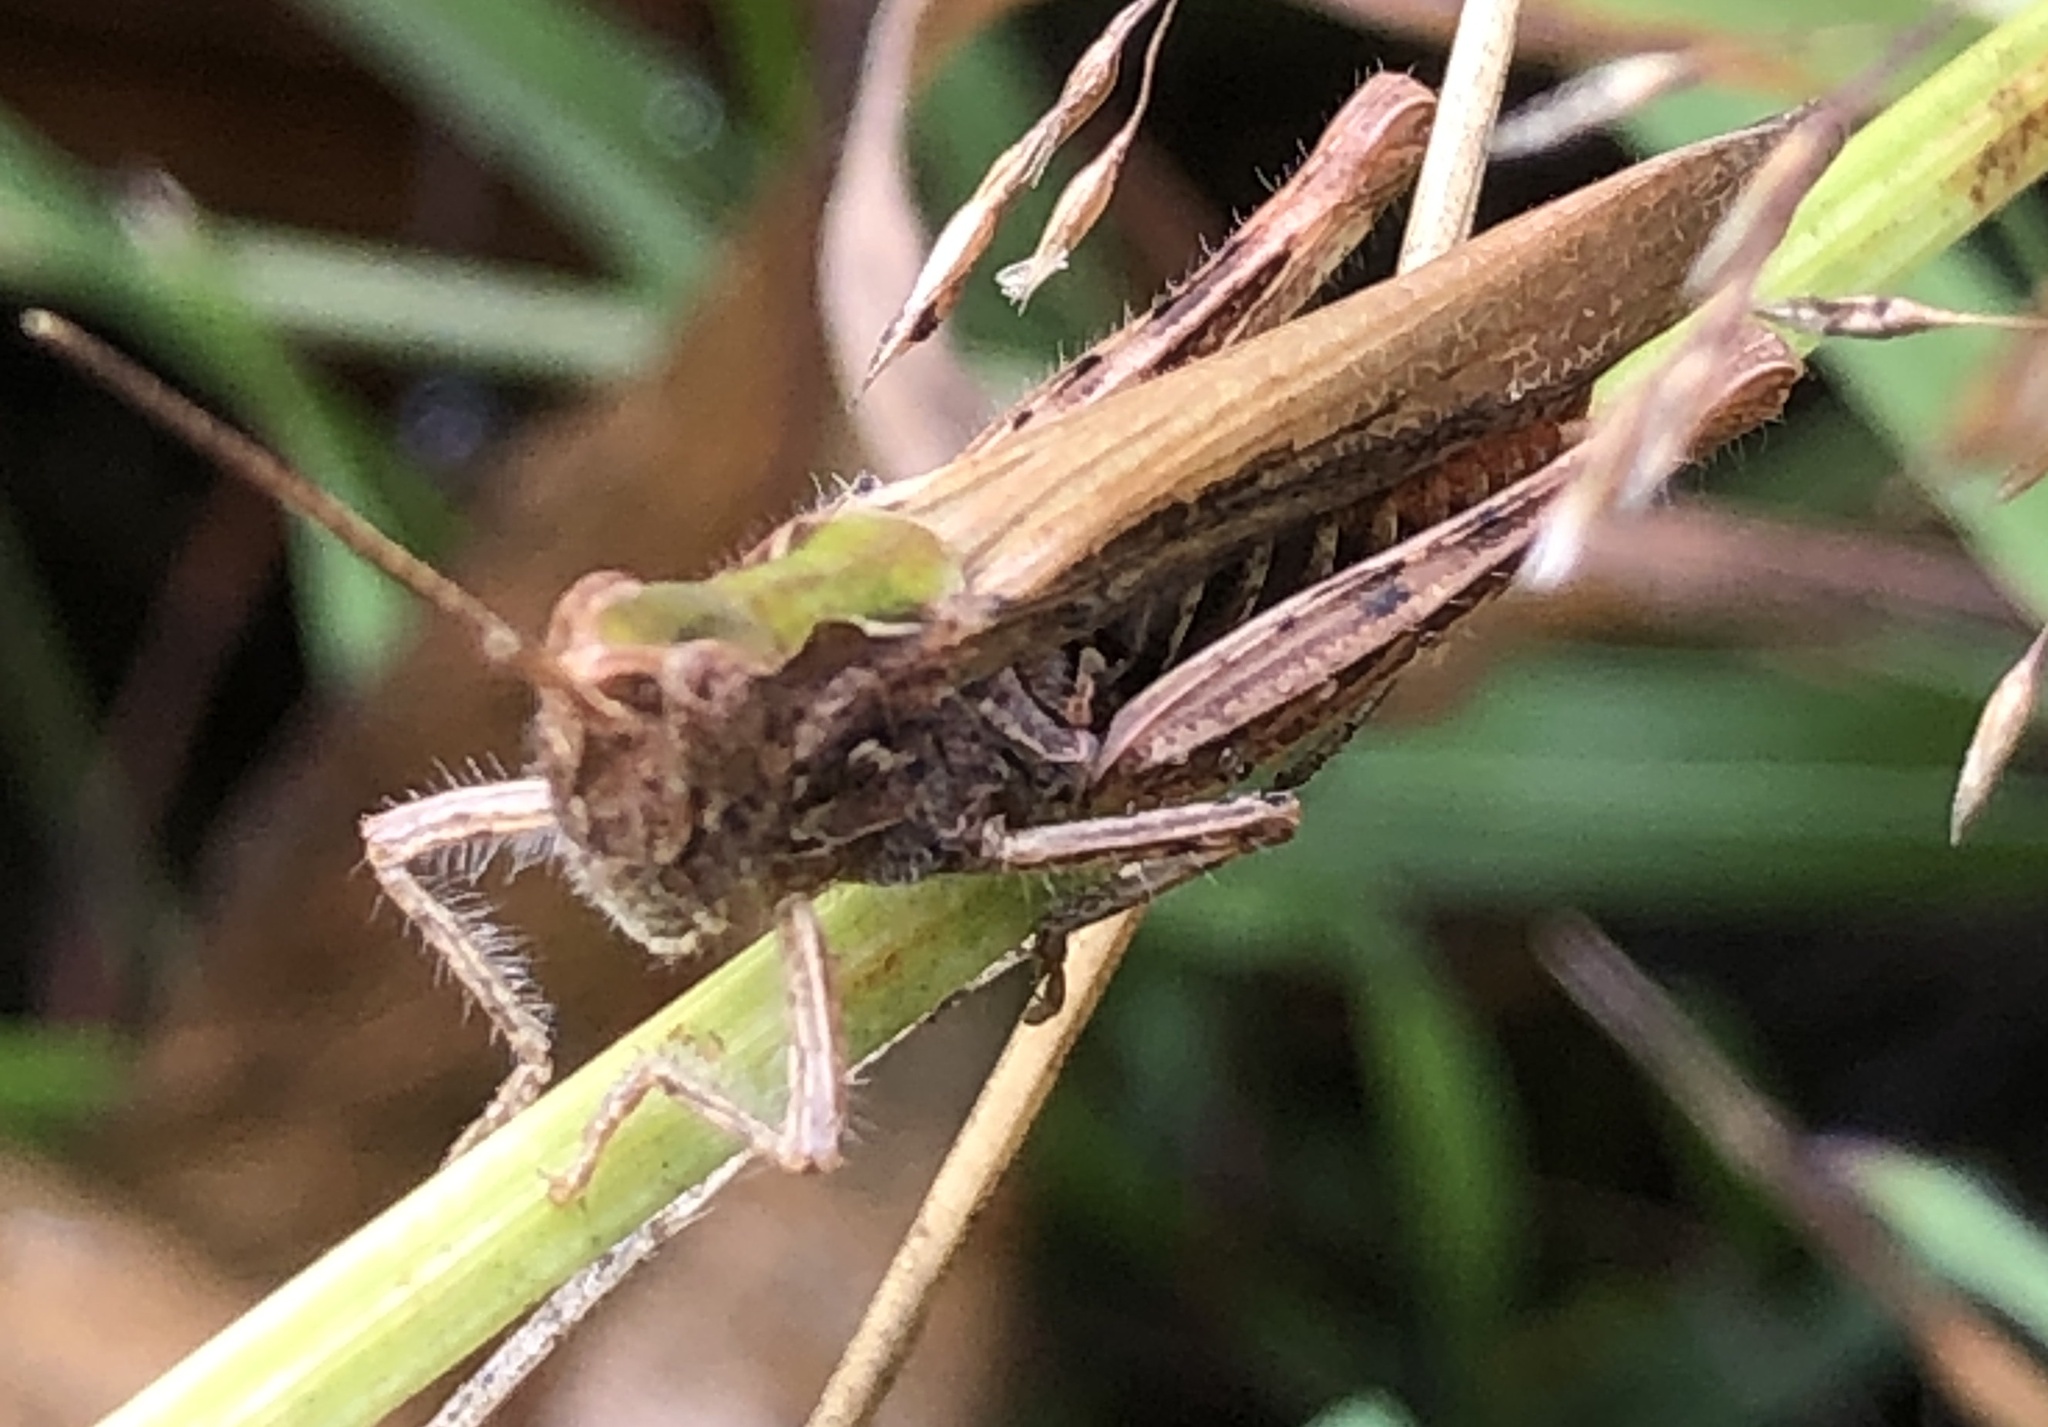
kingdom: Animalia
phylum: Arthropoda
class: Insecta
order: Orthoptera
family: Acrididae
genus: Chorthippus
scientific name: Chorthippus brunneus
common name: Field grasshopper
